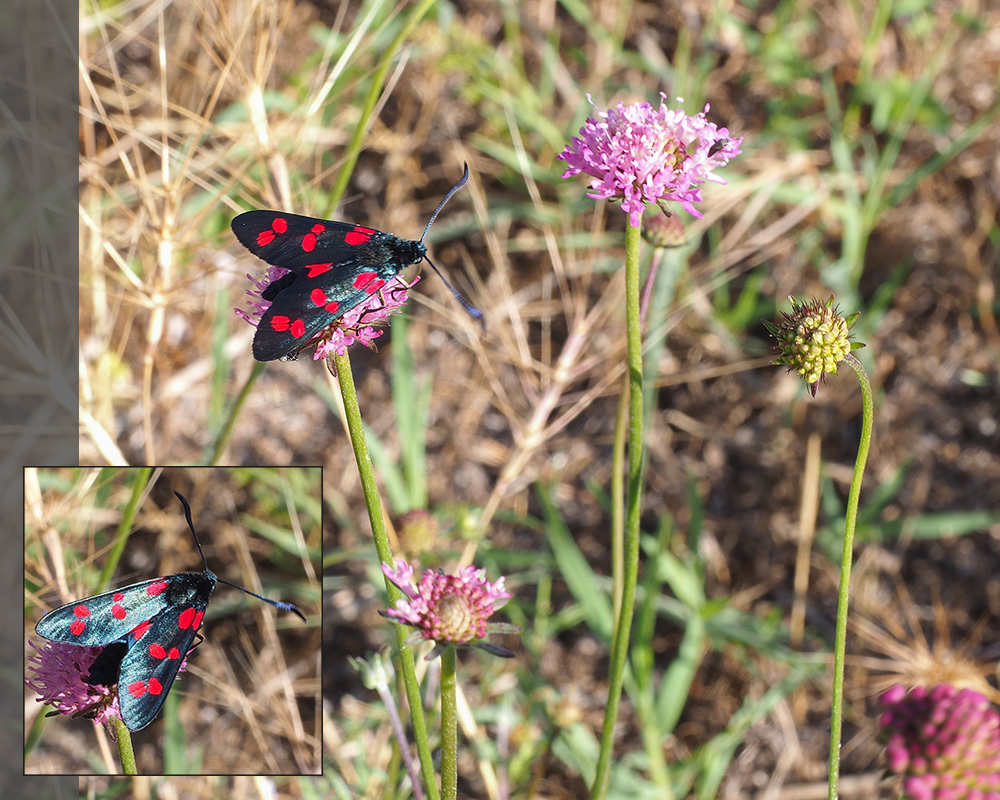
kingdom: Animalia
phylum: Arthropoda
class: Insecta
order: Lepidoptera
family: Zygaenidae
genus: Zygaena
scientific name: Zygaena filipendulae
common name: Six-spot burnet
